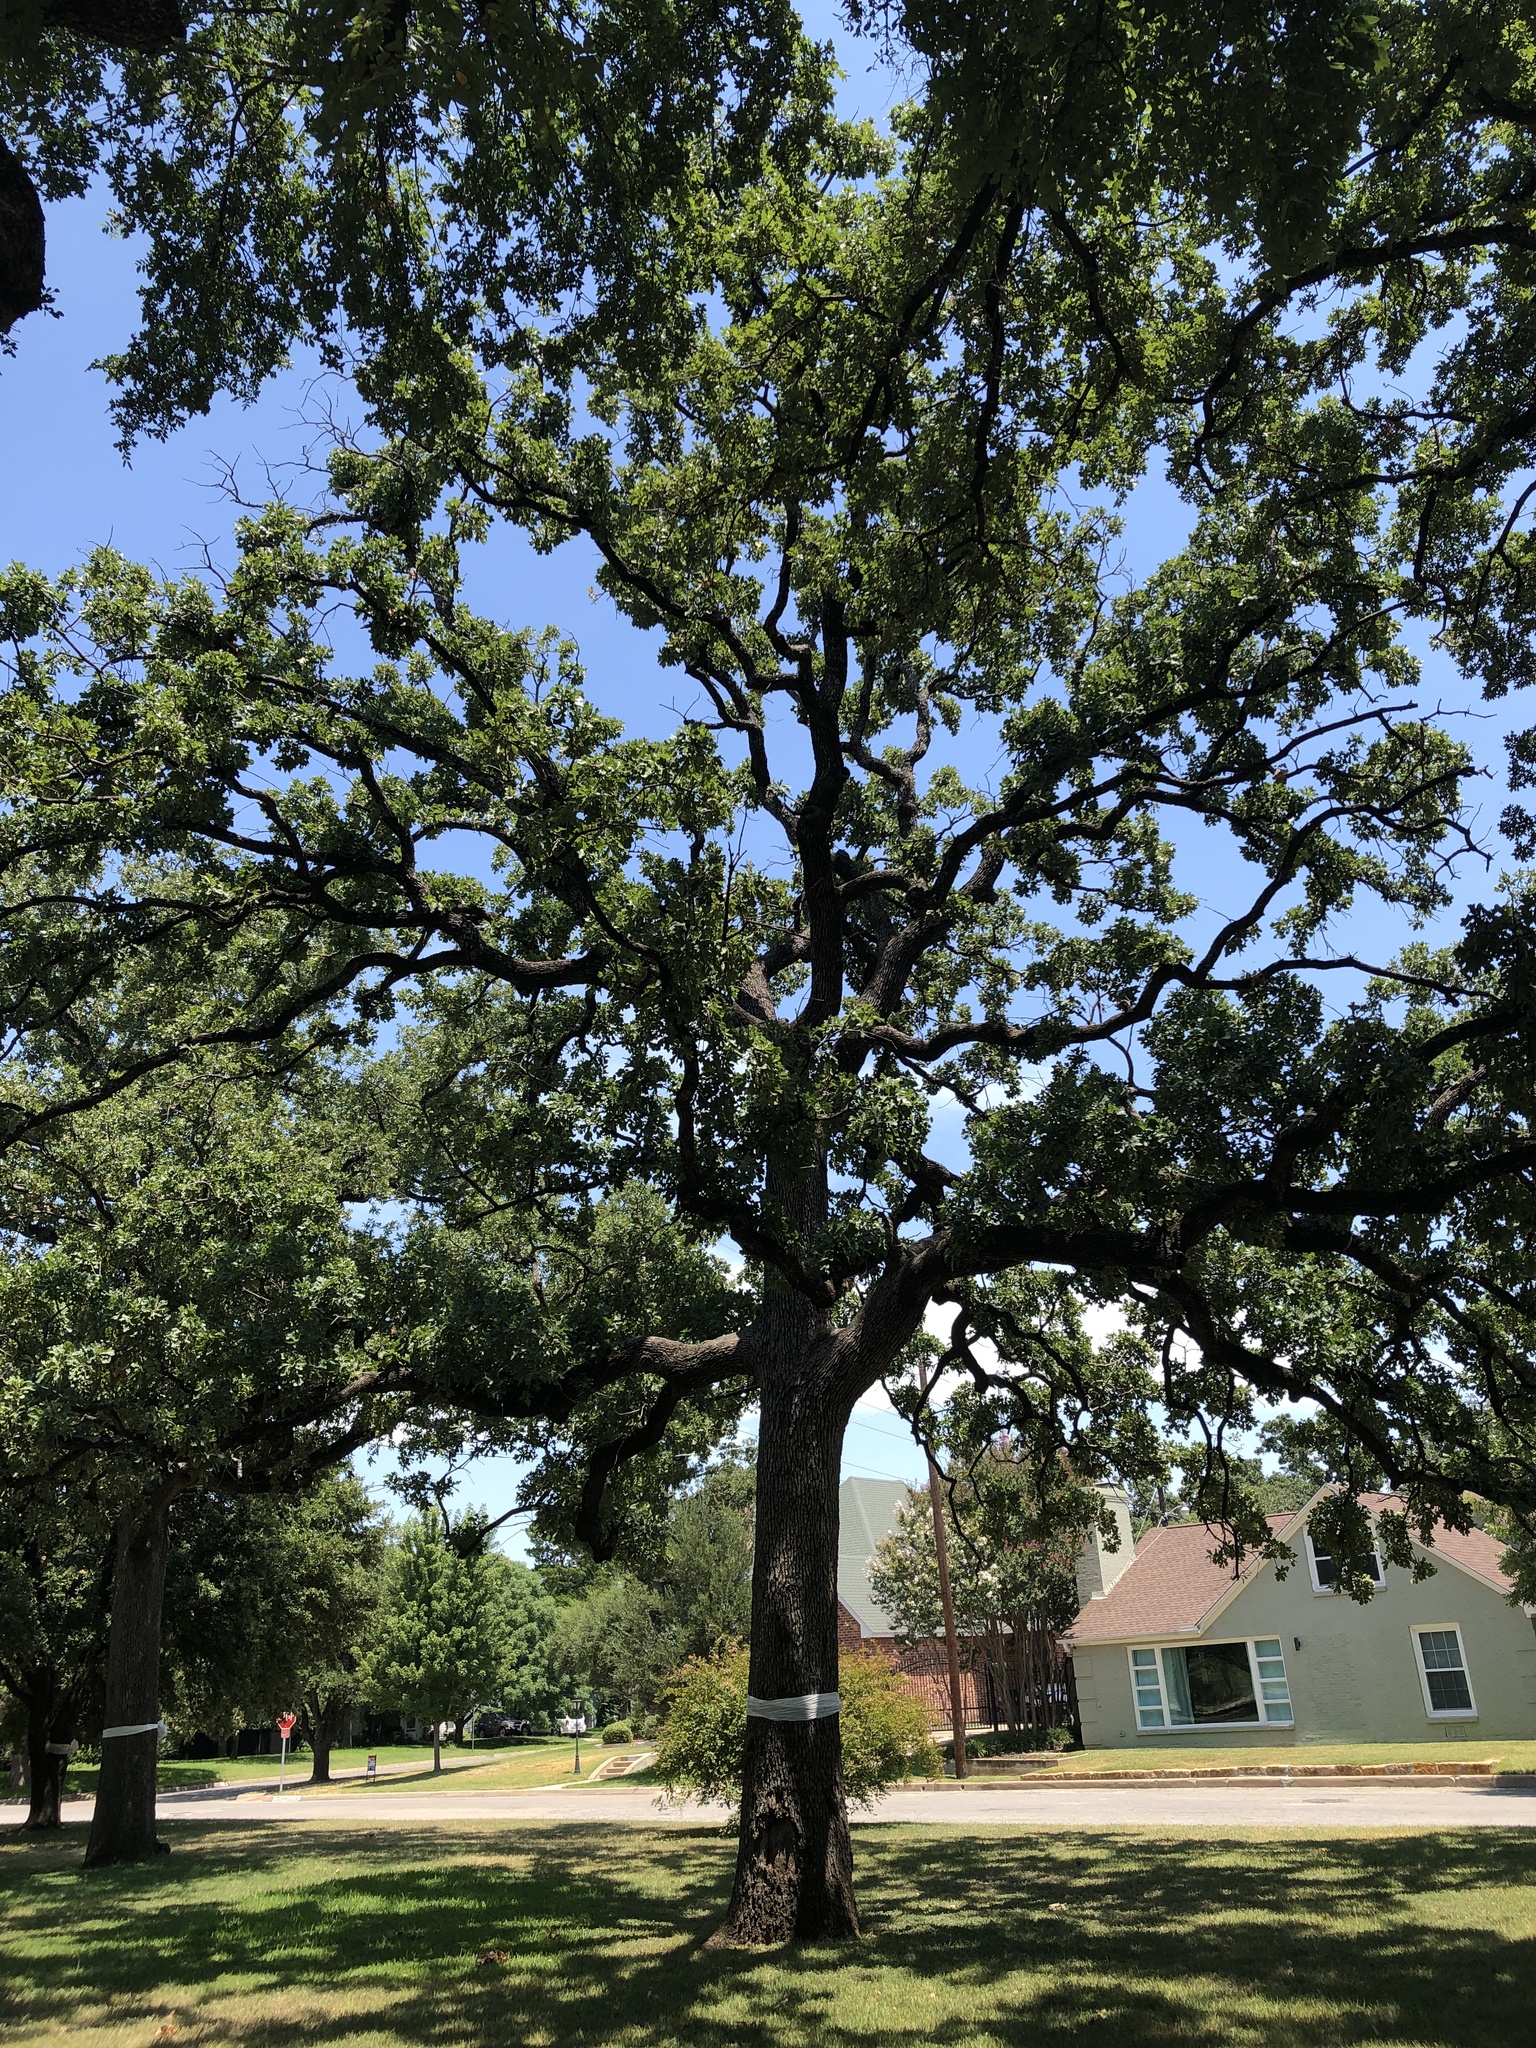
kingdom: Plantae
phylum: Tracheophyta
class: Magnoliopsida
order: Fagales
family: Fagaceae
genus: Quercus
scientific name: Quercus stellata
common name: Post oak
